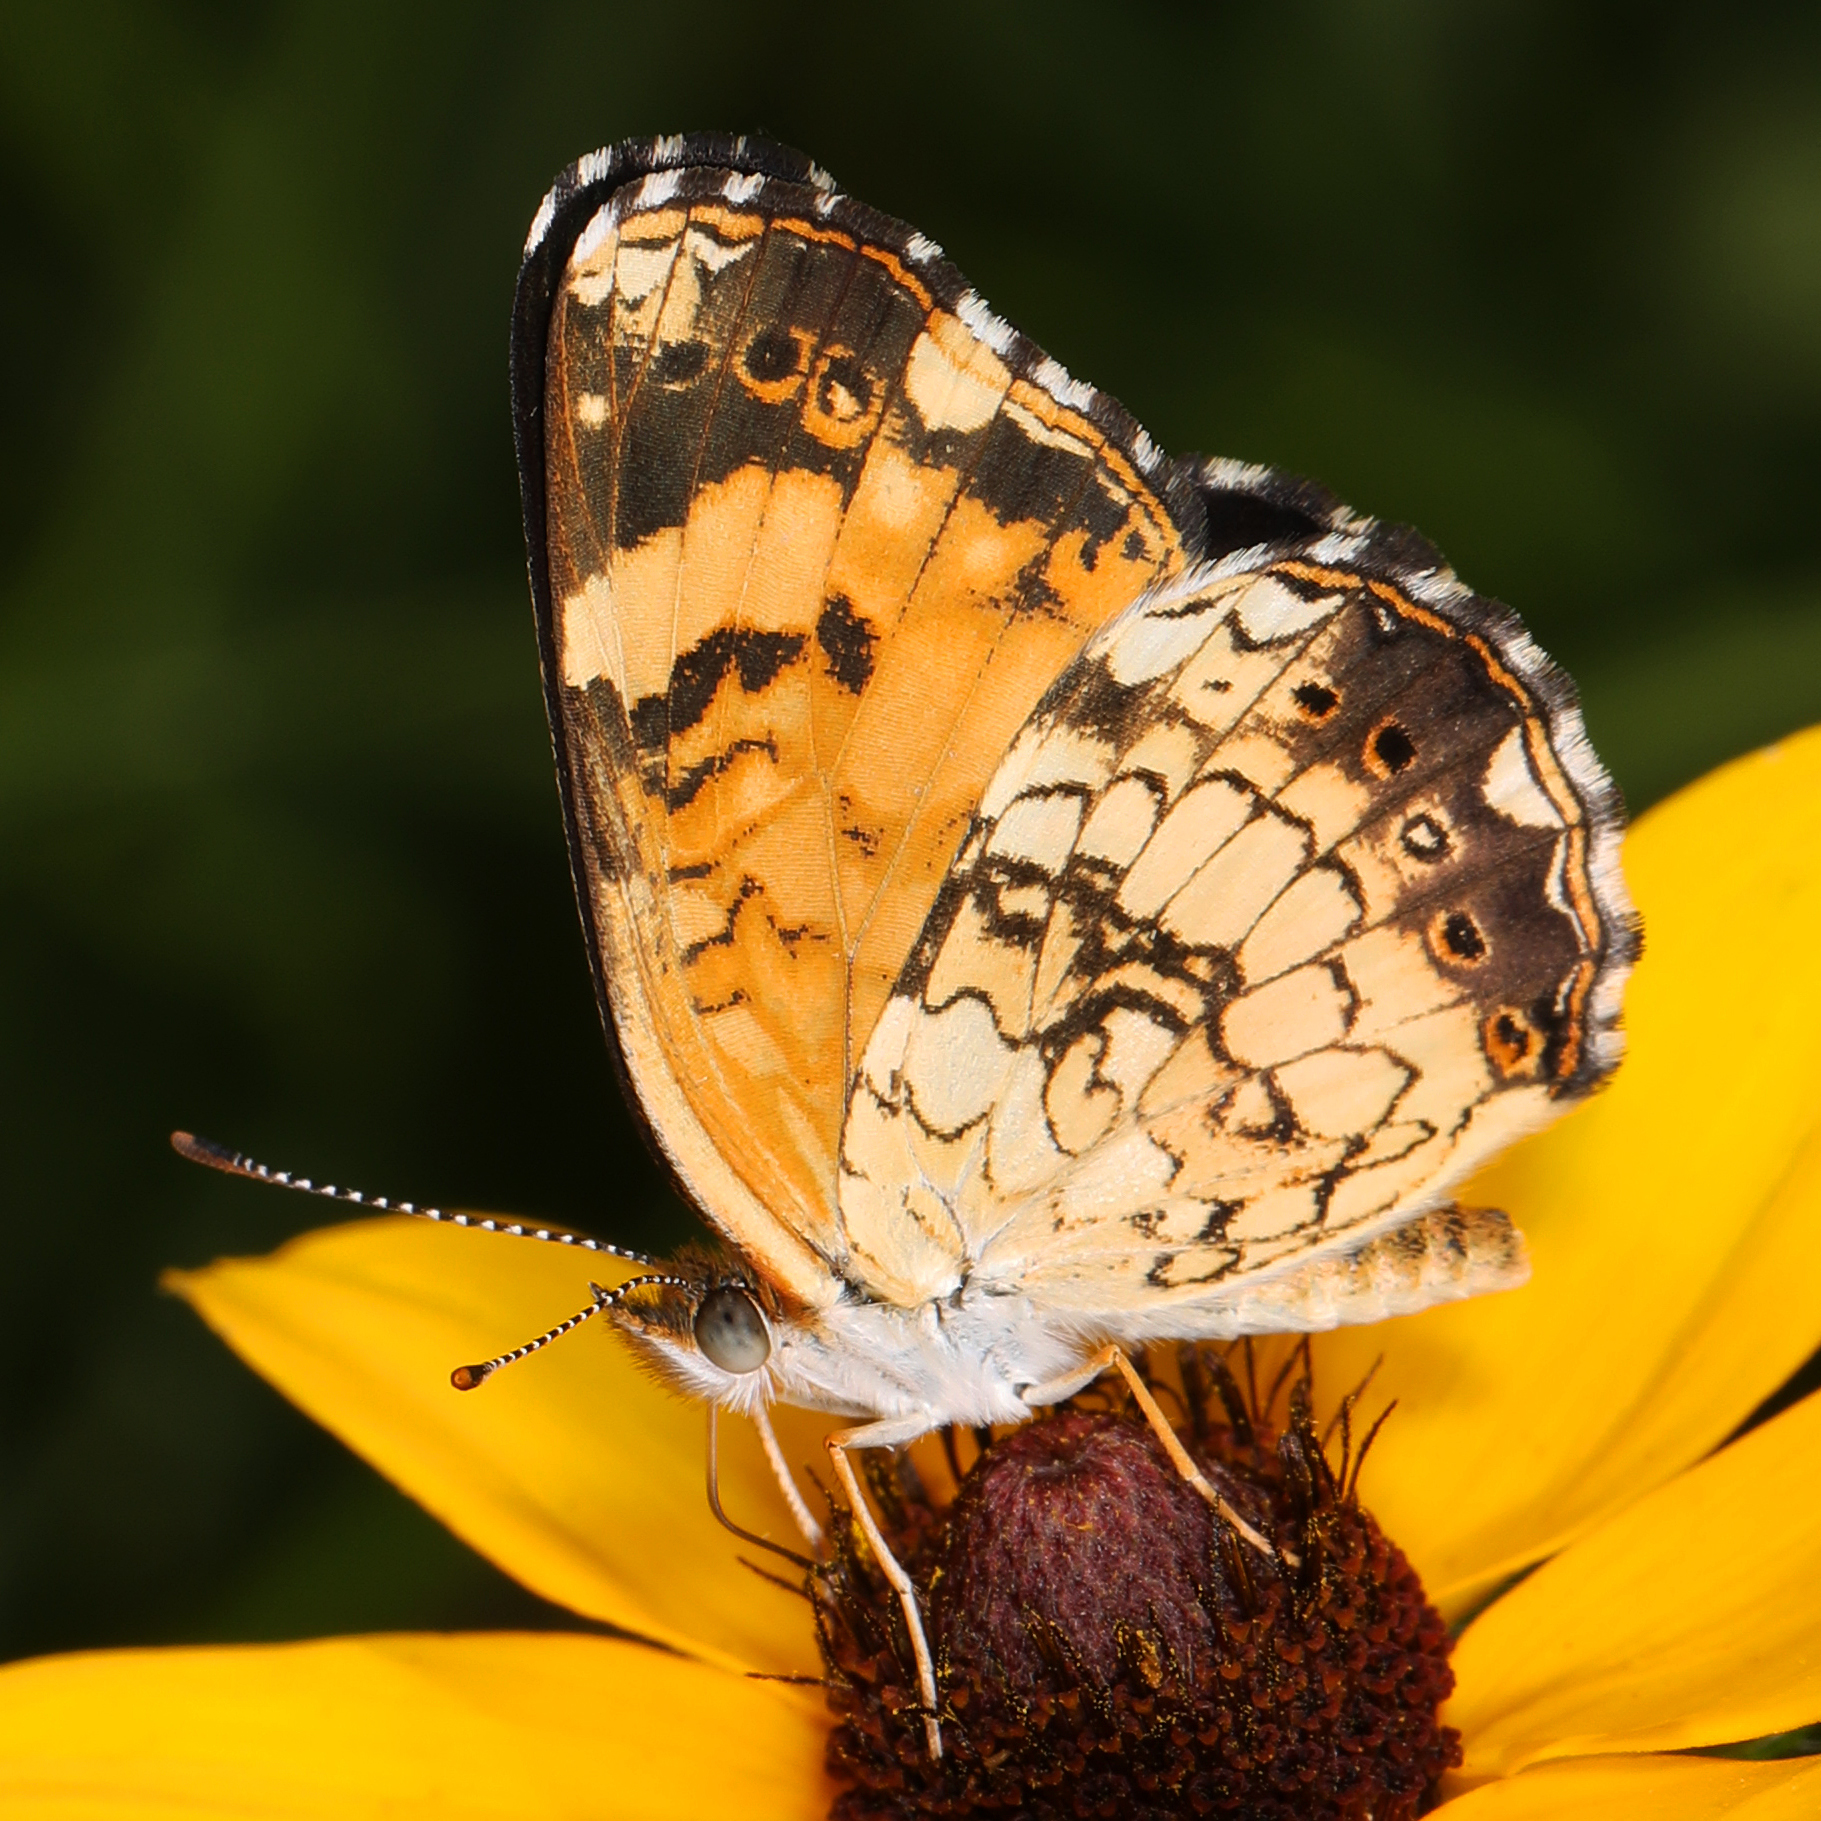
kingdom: Animalia
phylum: Arthropoda
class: Insecta
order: Lepidoptera
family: Nymphalidae
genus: Chlosyne
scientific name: Chlosyne nycteis
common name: Silvery checkerspot
